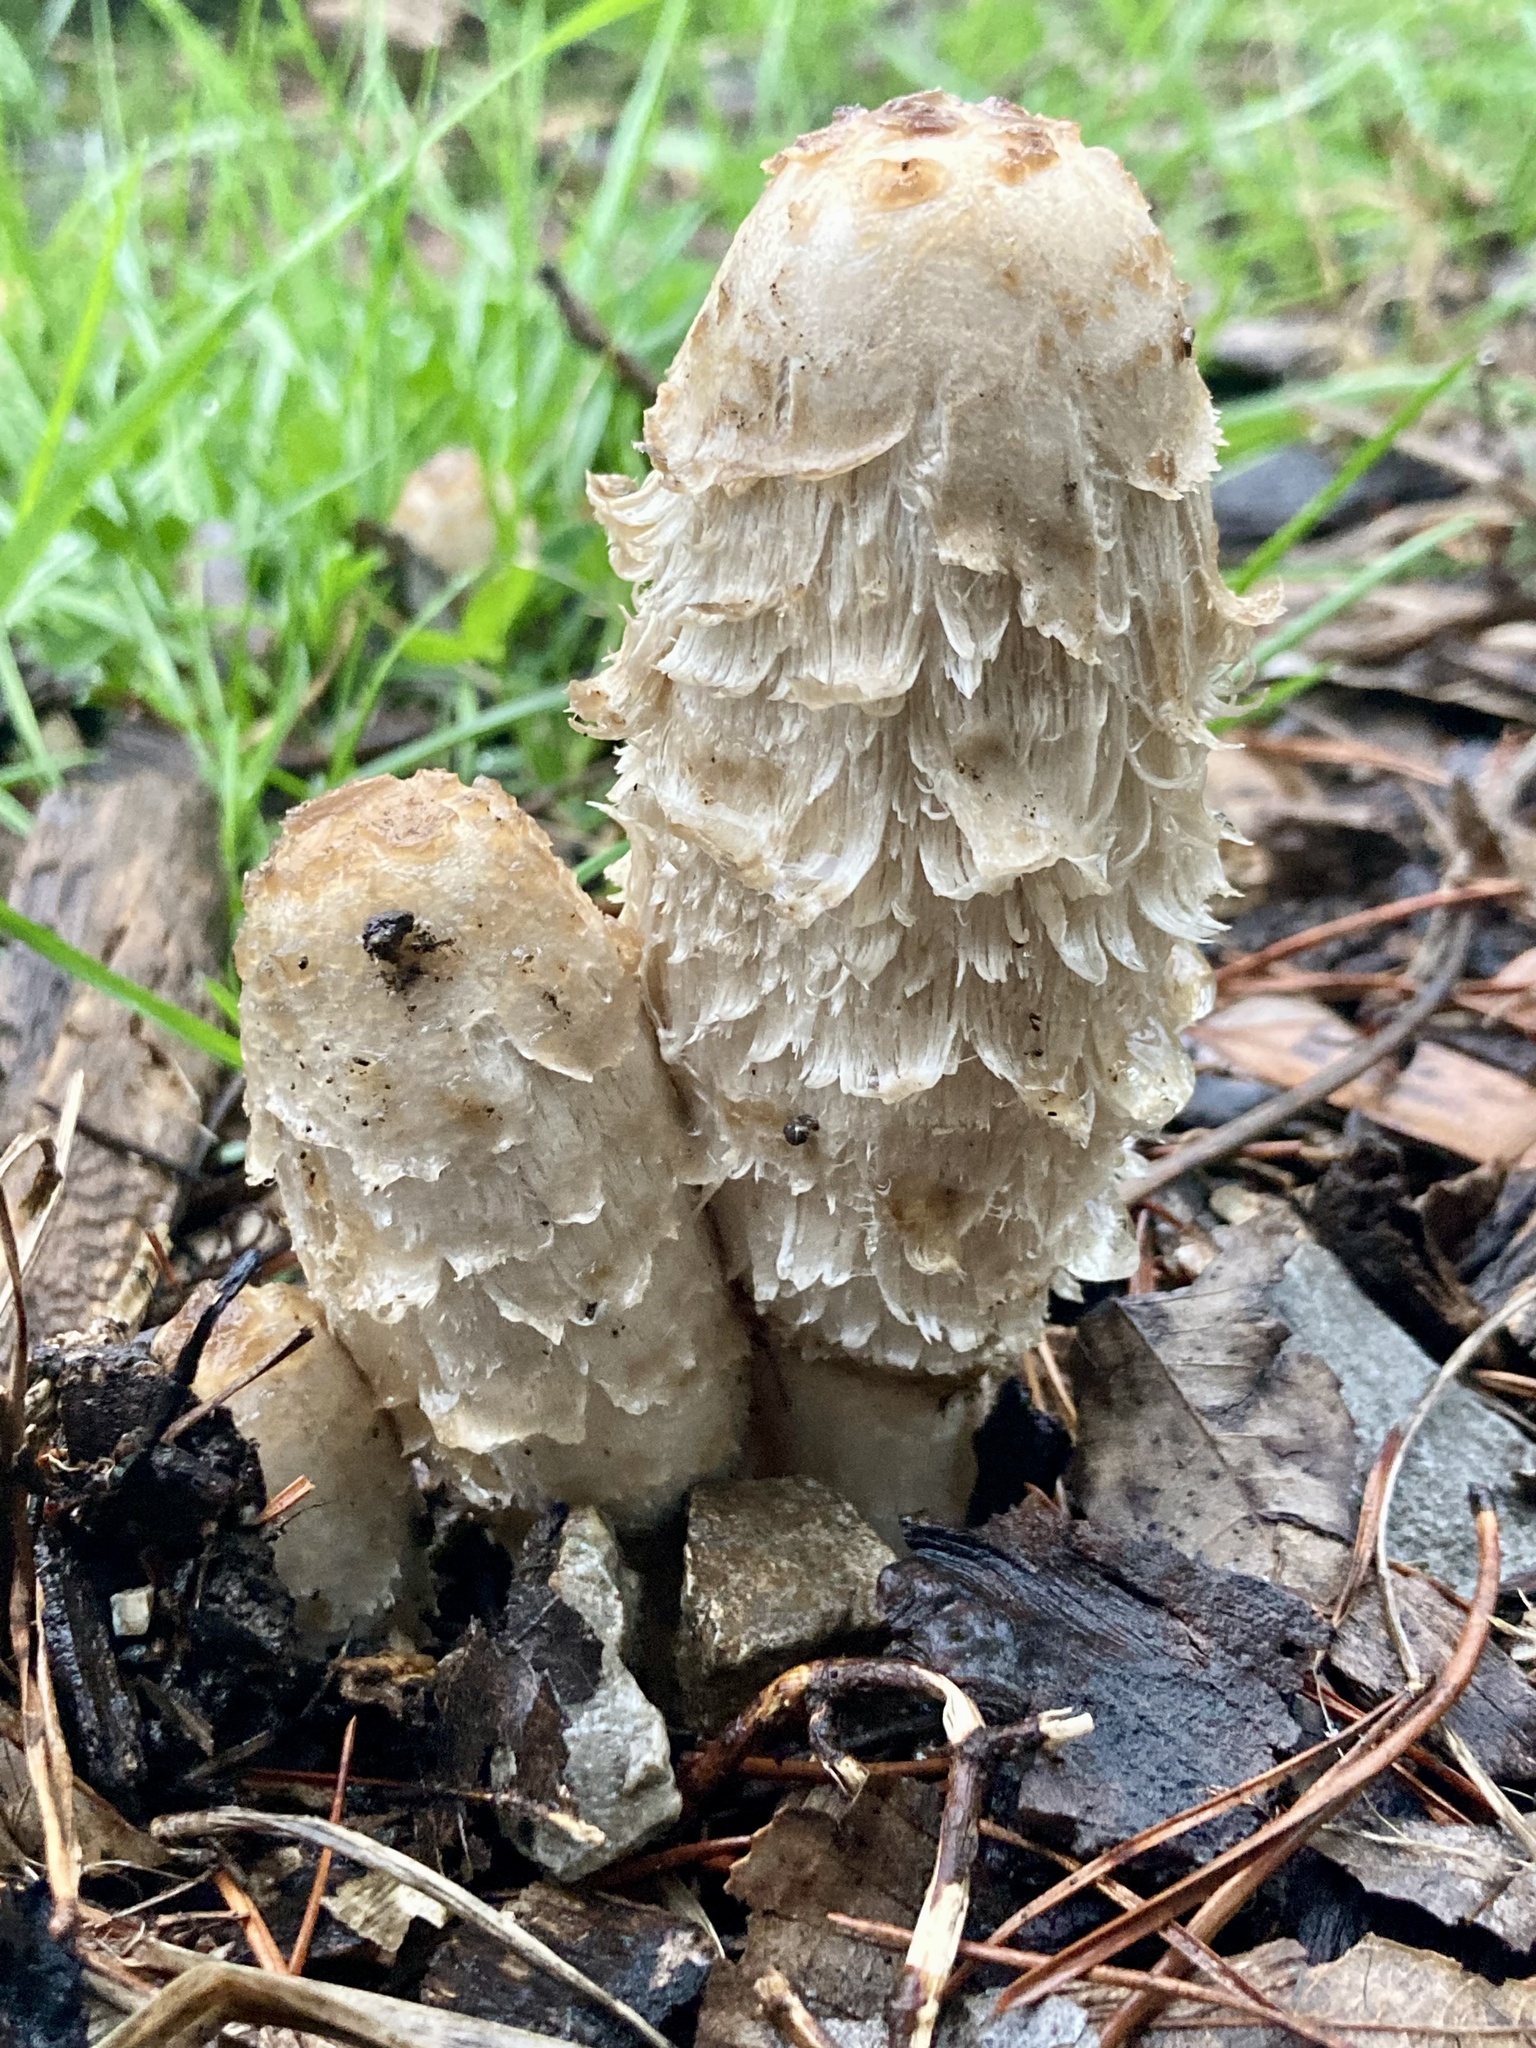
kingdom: Fungi
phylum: Basidiomycota
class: Agaricomycetes
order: Agaricales
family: Agaricaceae
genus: Coprinus
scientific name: Coprinus comatus
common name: Lawyer's wig
